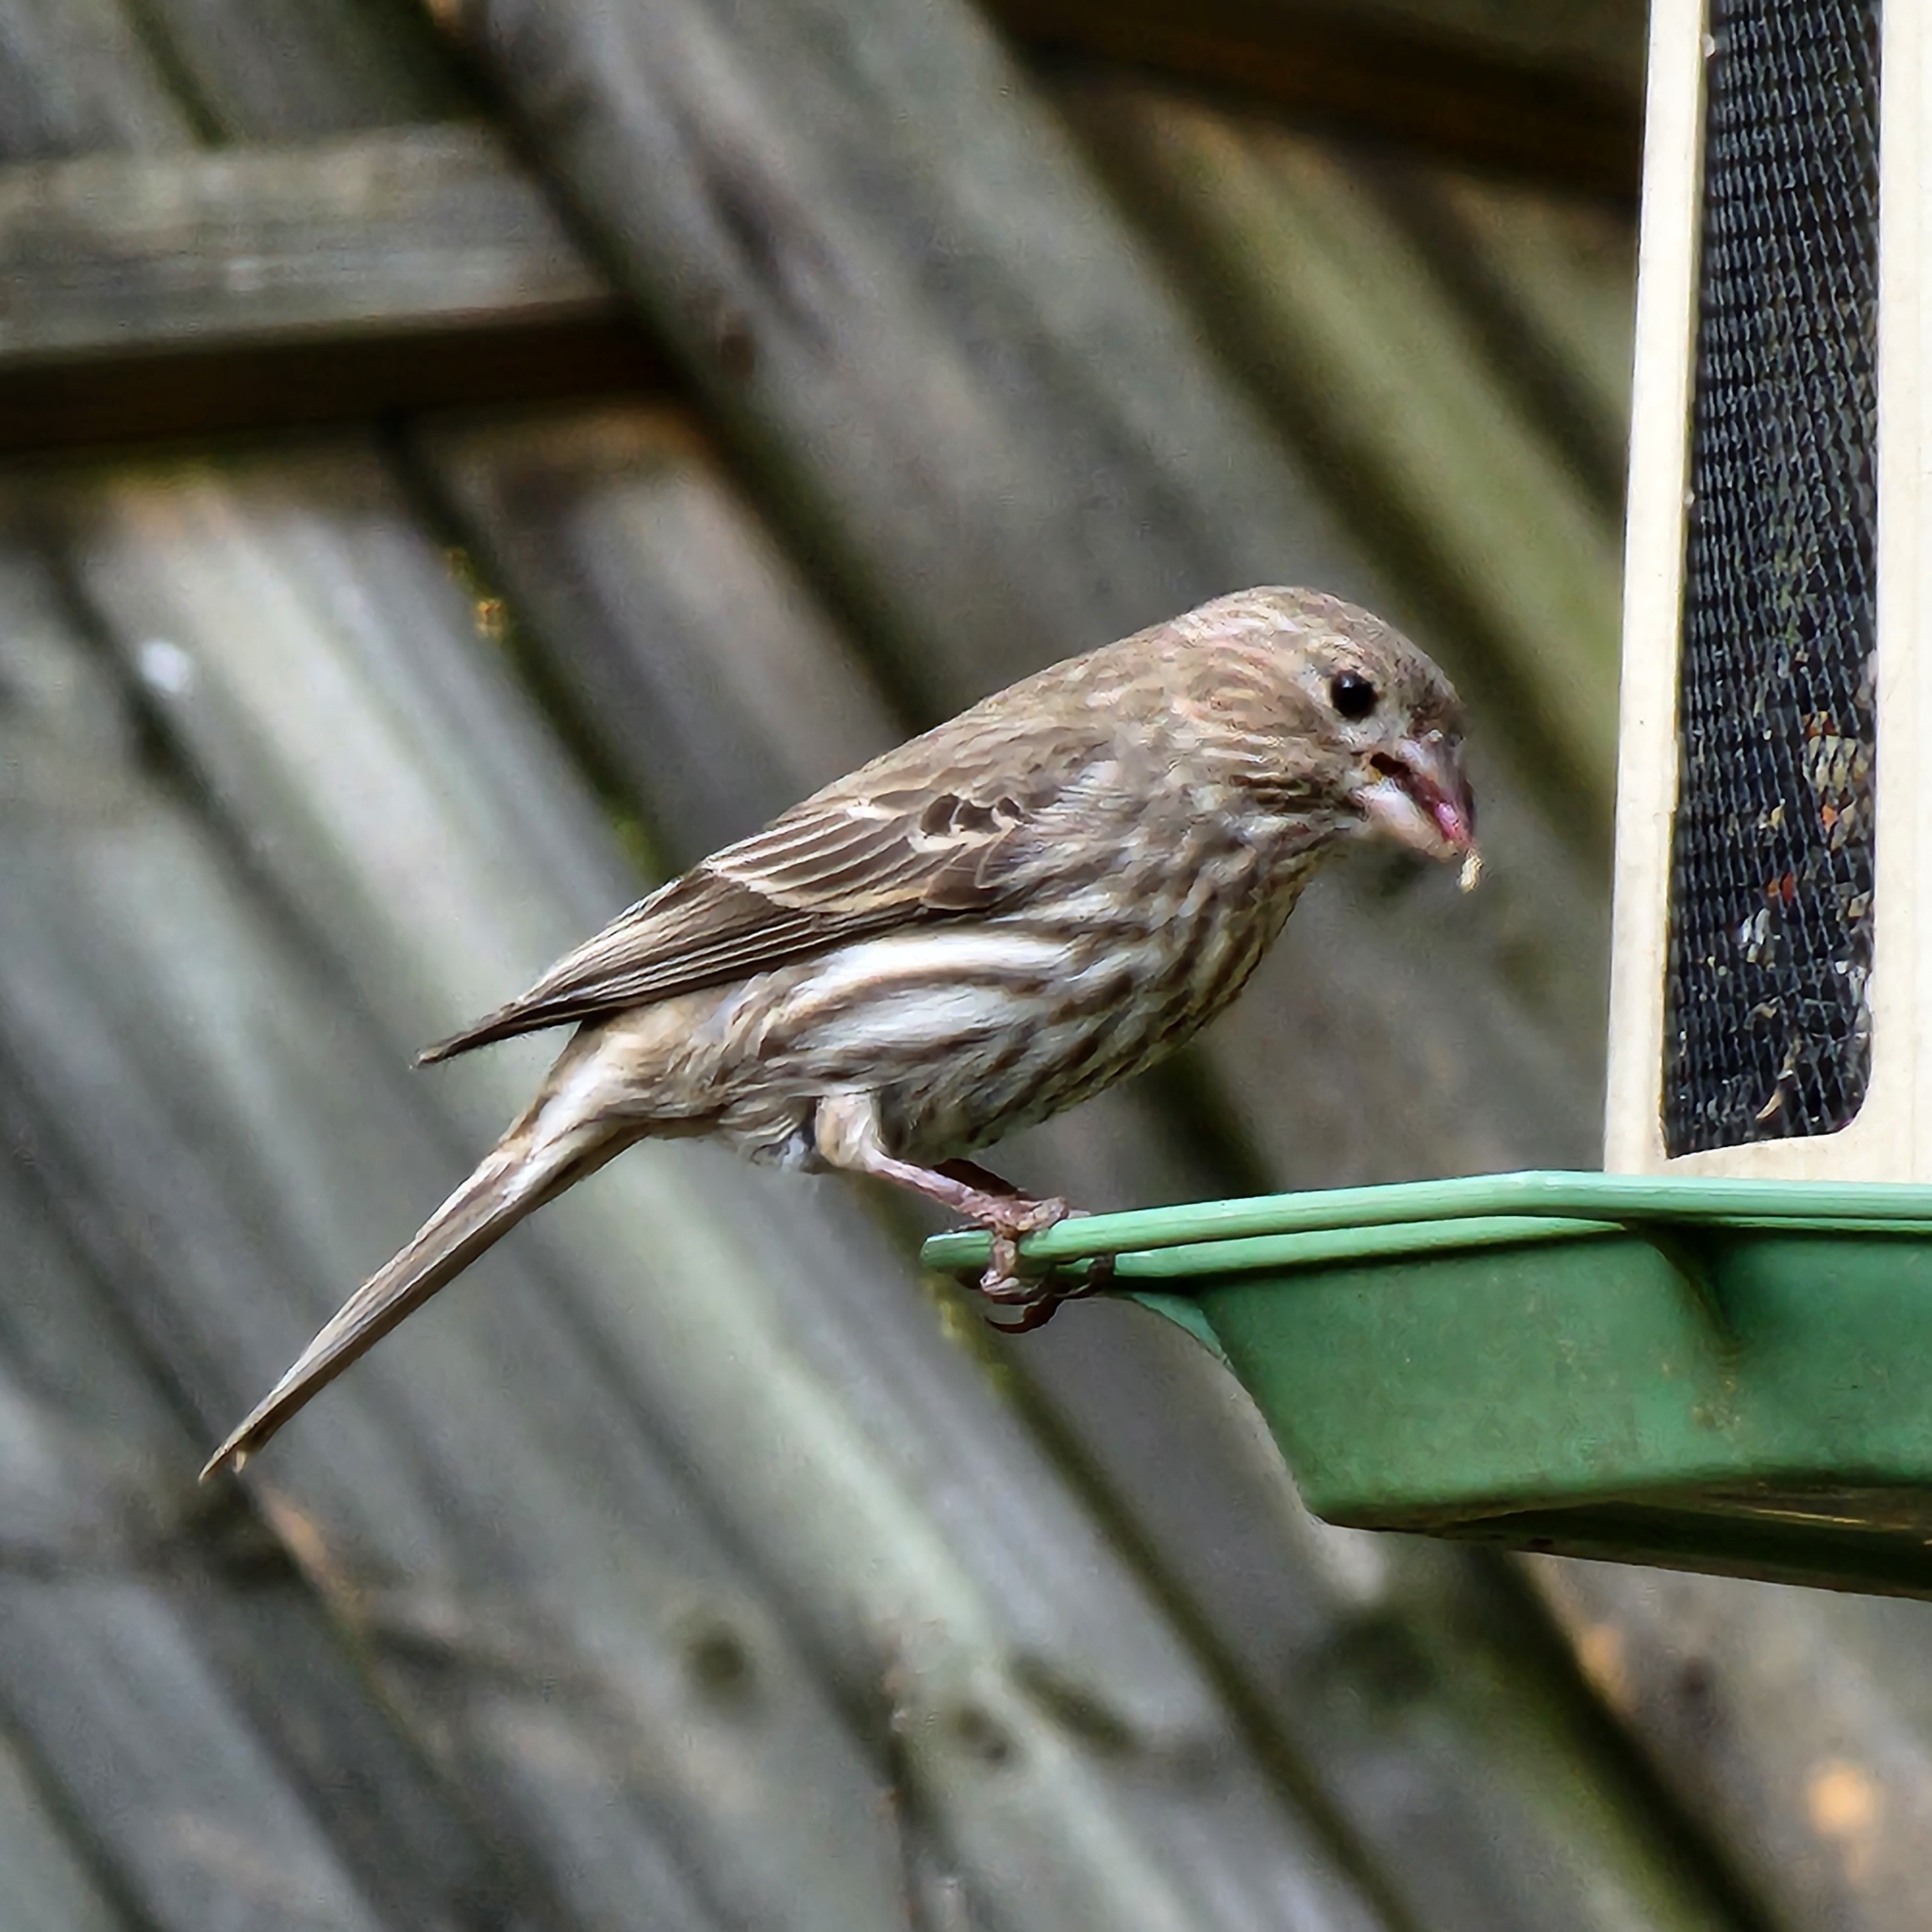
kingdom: Animalia
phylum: Chordata
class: Aves
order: Passeriformes
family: Fringillidae
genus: Haemorhous
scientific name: Haemorhous mexicanus
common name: House finch
